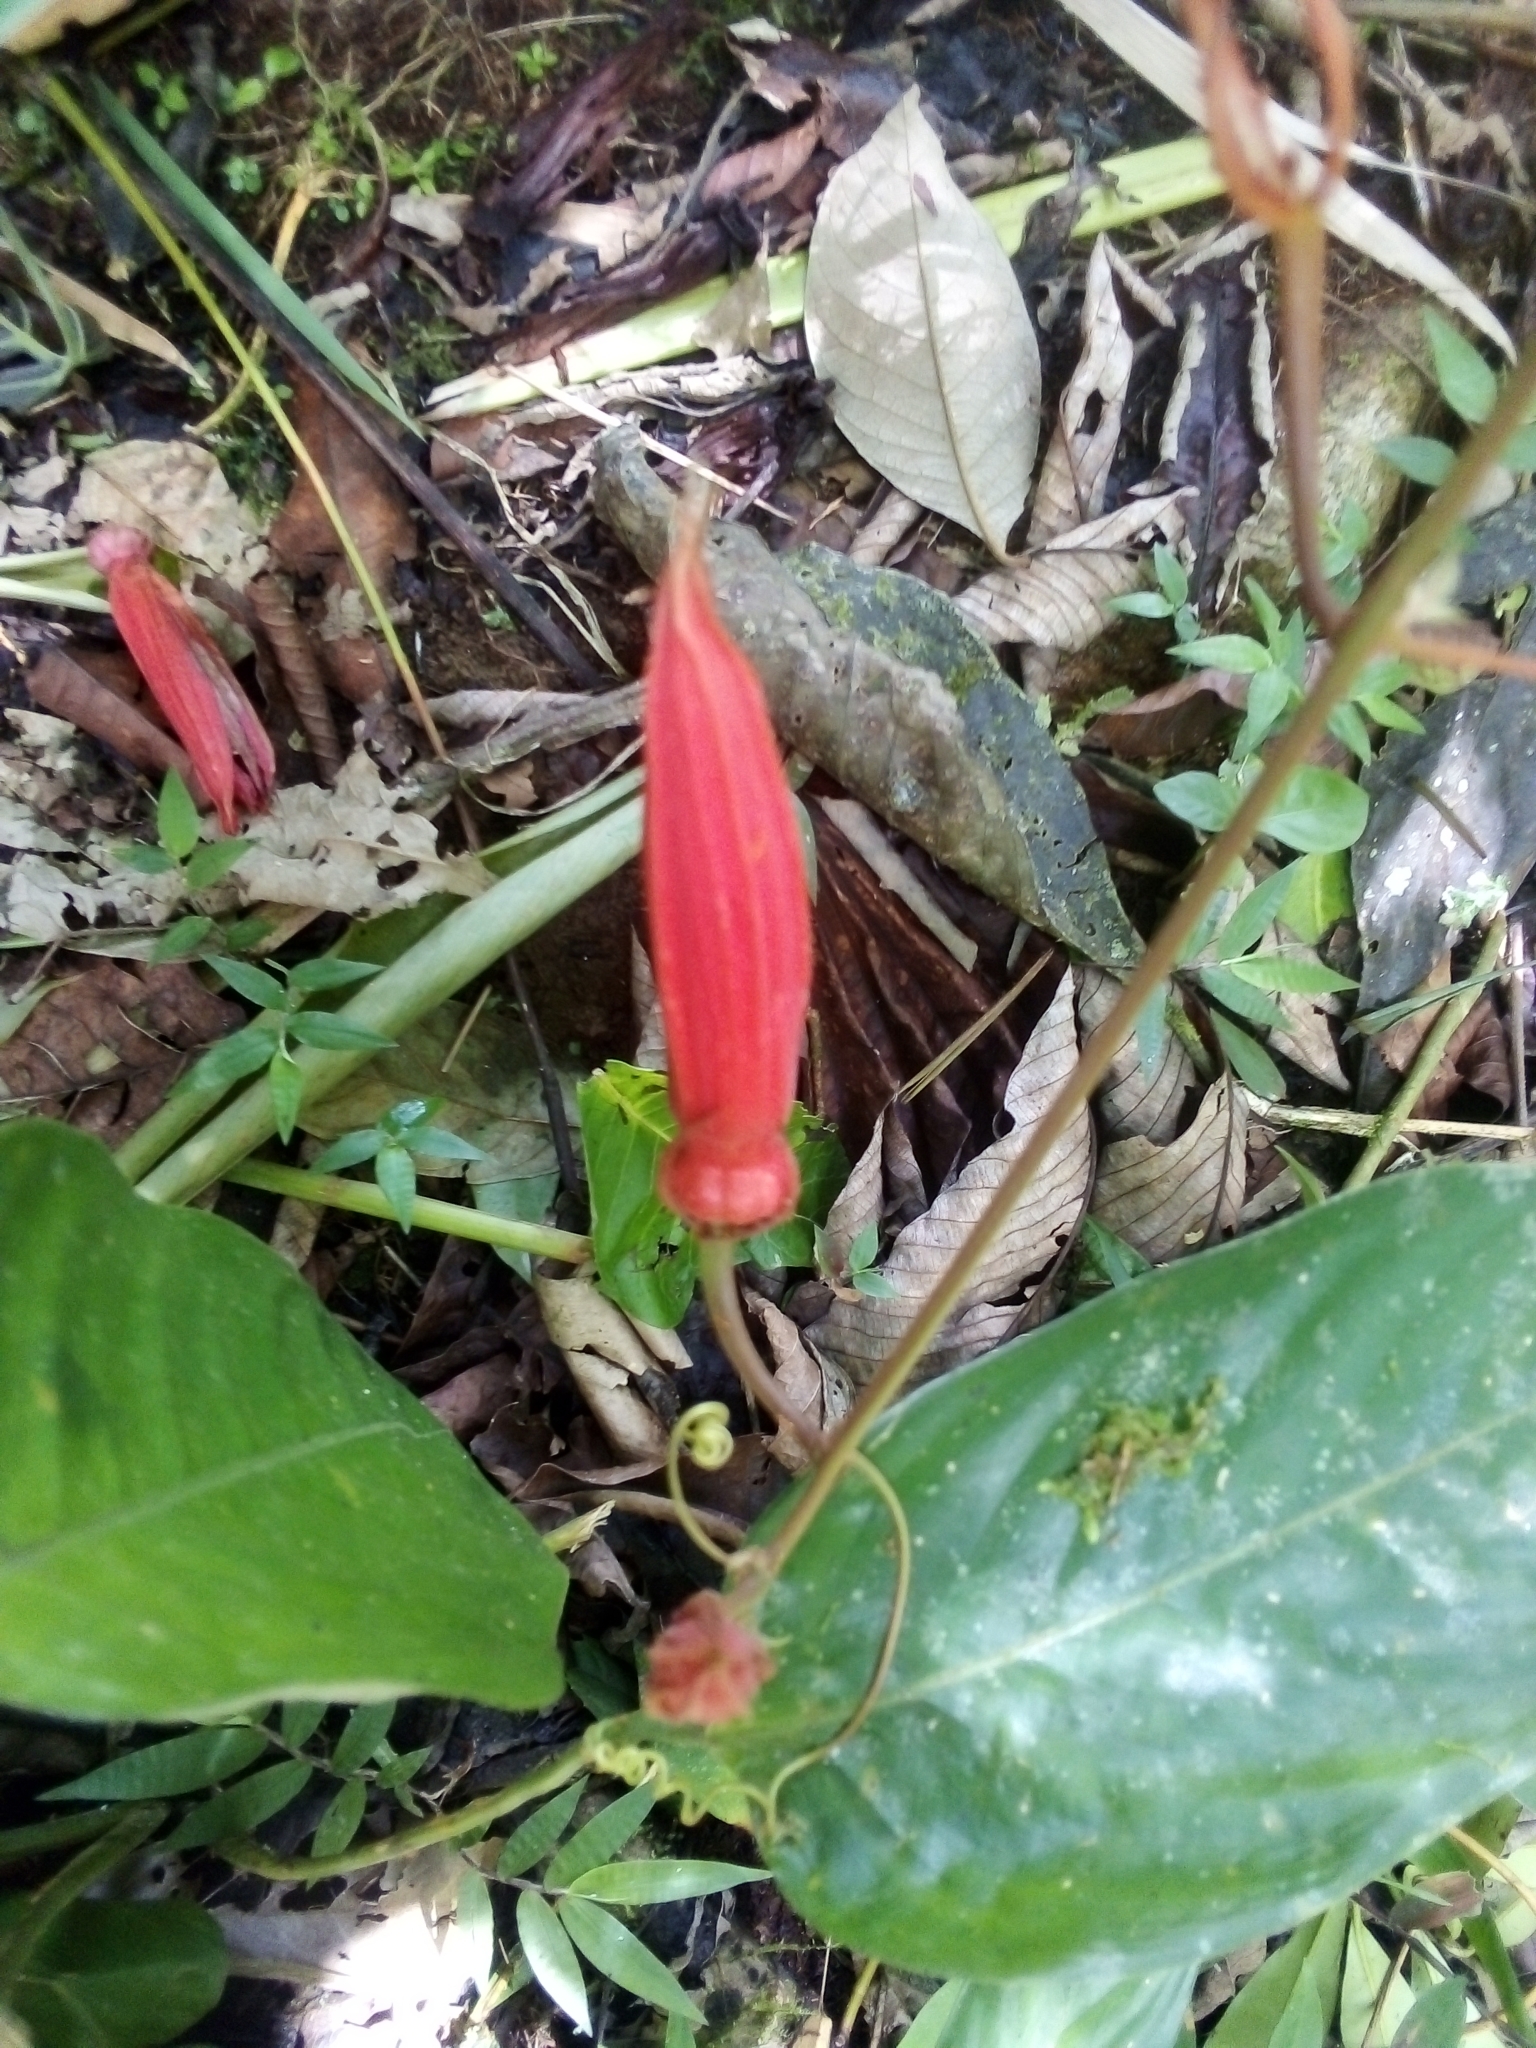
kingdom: Plantae
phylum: Tracheophyta
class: Magnoliopsida
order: Malpighiales
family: Passifloraceae
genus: Passiflora
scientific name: Passiflora vitifolia
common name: Perfumed passionflower
